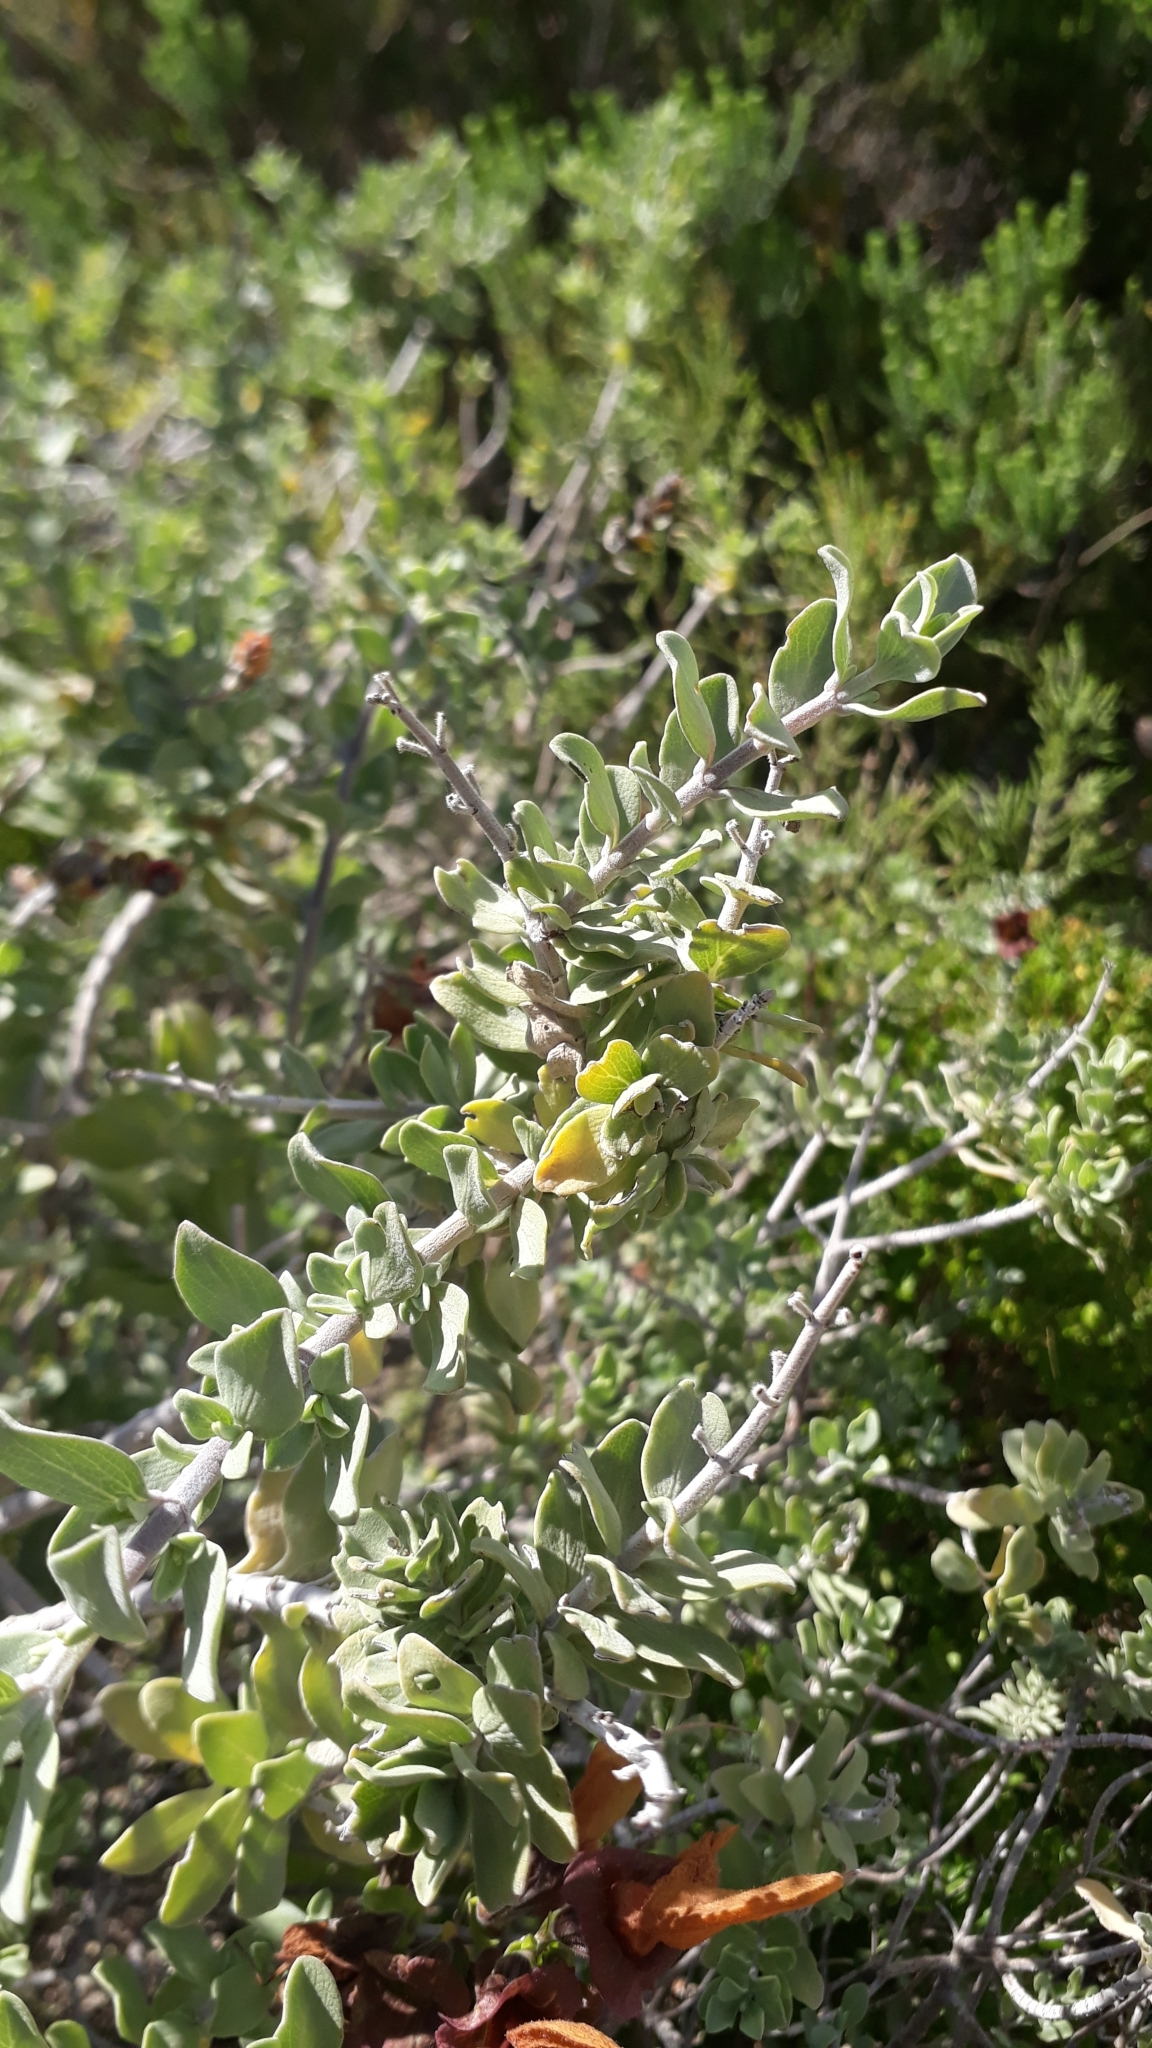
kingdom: Plantae
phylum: Tracheophyta
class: Magnoliopsida
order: Lamiales
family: Lamiaceae
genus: Salvia
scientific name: Salvia aurea
